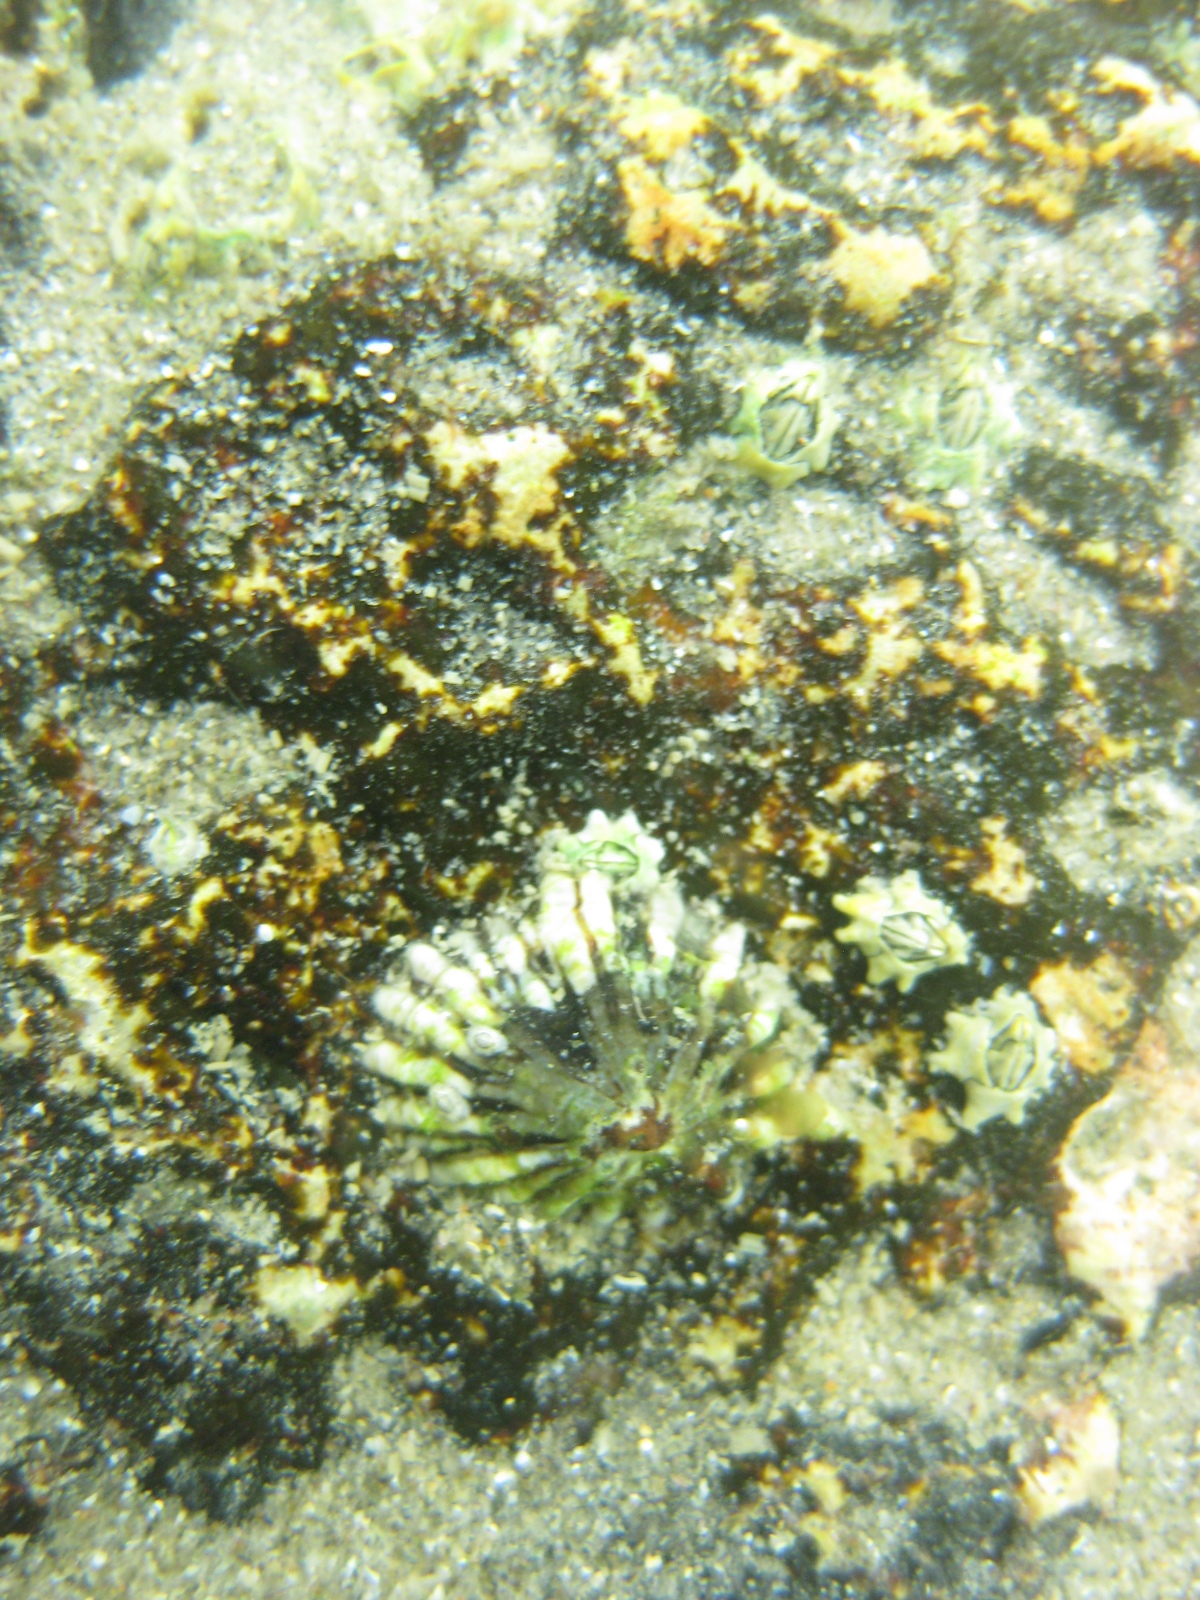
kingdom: Animalia
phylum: Mollusca
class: Gastropoda
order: Siphonariida
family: Siphonariidae
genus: Siphonaria
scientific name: Siphonaria australis
